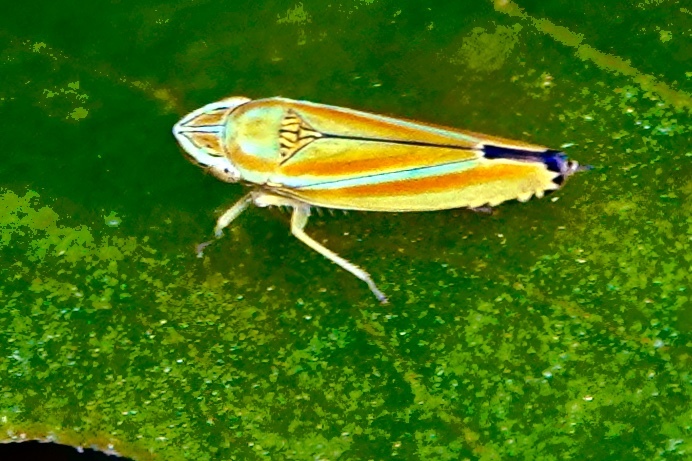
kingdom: Animalia
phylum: Arthropoda
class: Insecta
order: Hemiptera
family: Cicadellidae
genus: Graphocephala
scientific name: Graphocephala versuta
